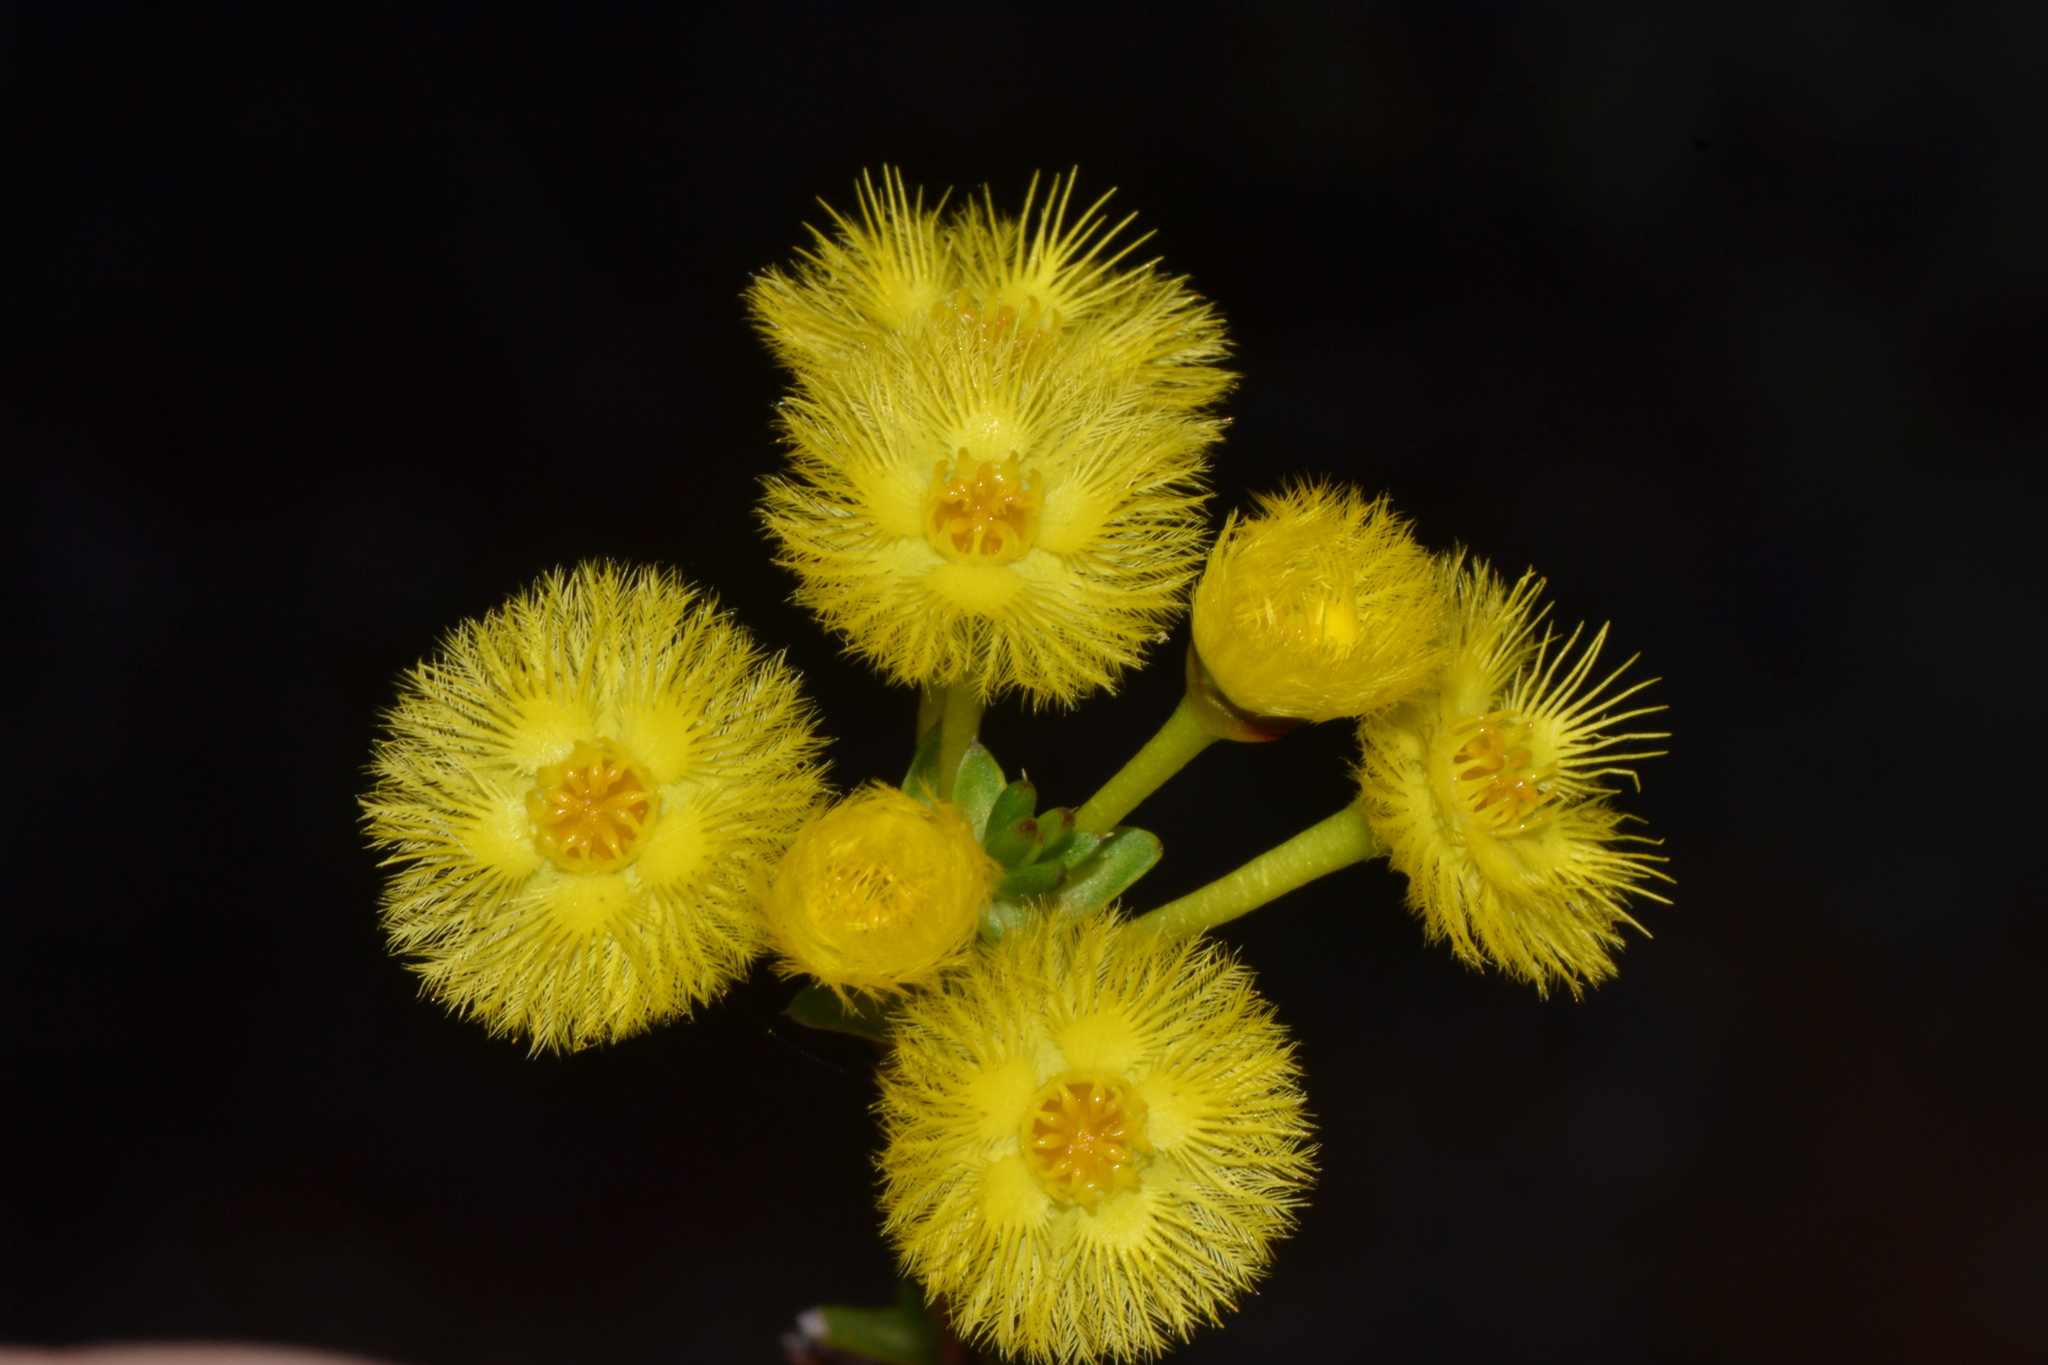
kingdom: Plantae
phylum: Tracheophyta
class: Magnoliopsida
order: Myrtales
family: Myrtaceae
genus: Verticordia
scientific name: Verticordia acerosa
